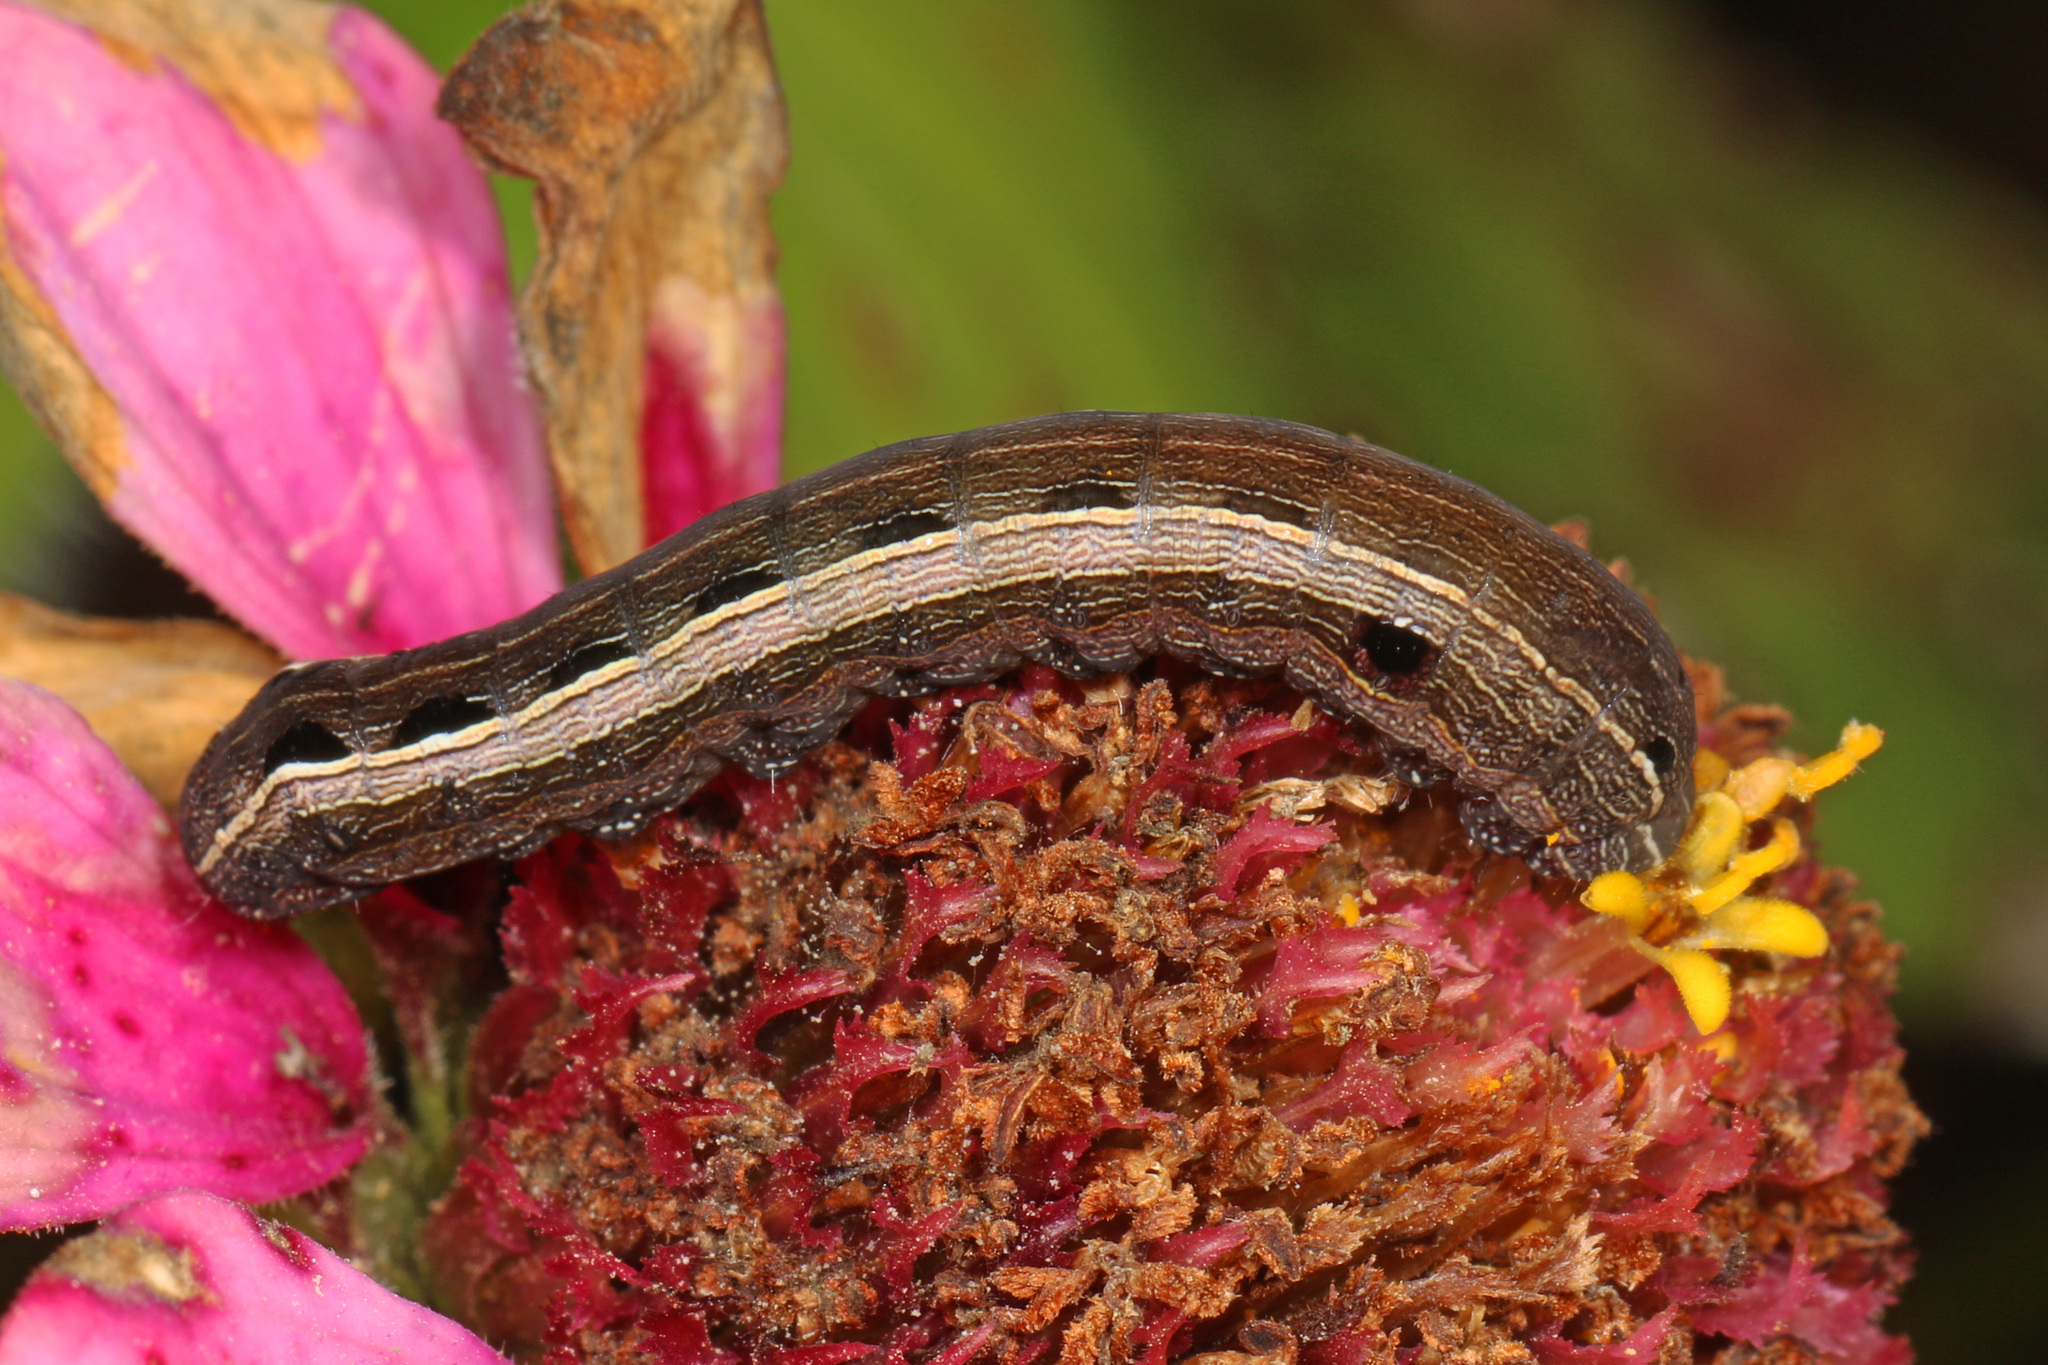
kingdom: Animalia
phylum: Arthropoda
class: Insecta
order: Lepidoptera
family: Noctuidae
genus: Spodoptera
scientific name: Spodoptera ornithogalli
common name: Yellow-striped armyworm
